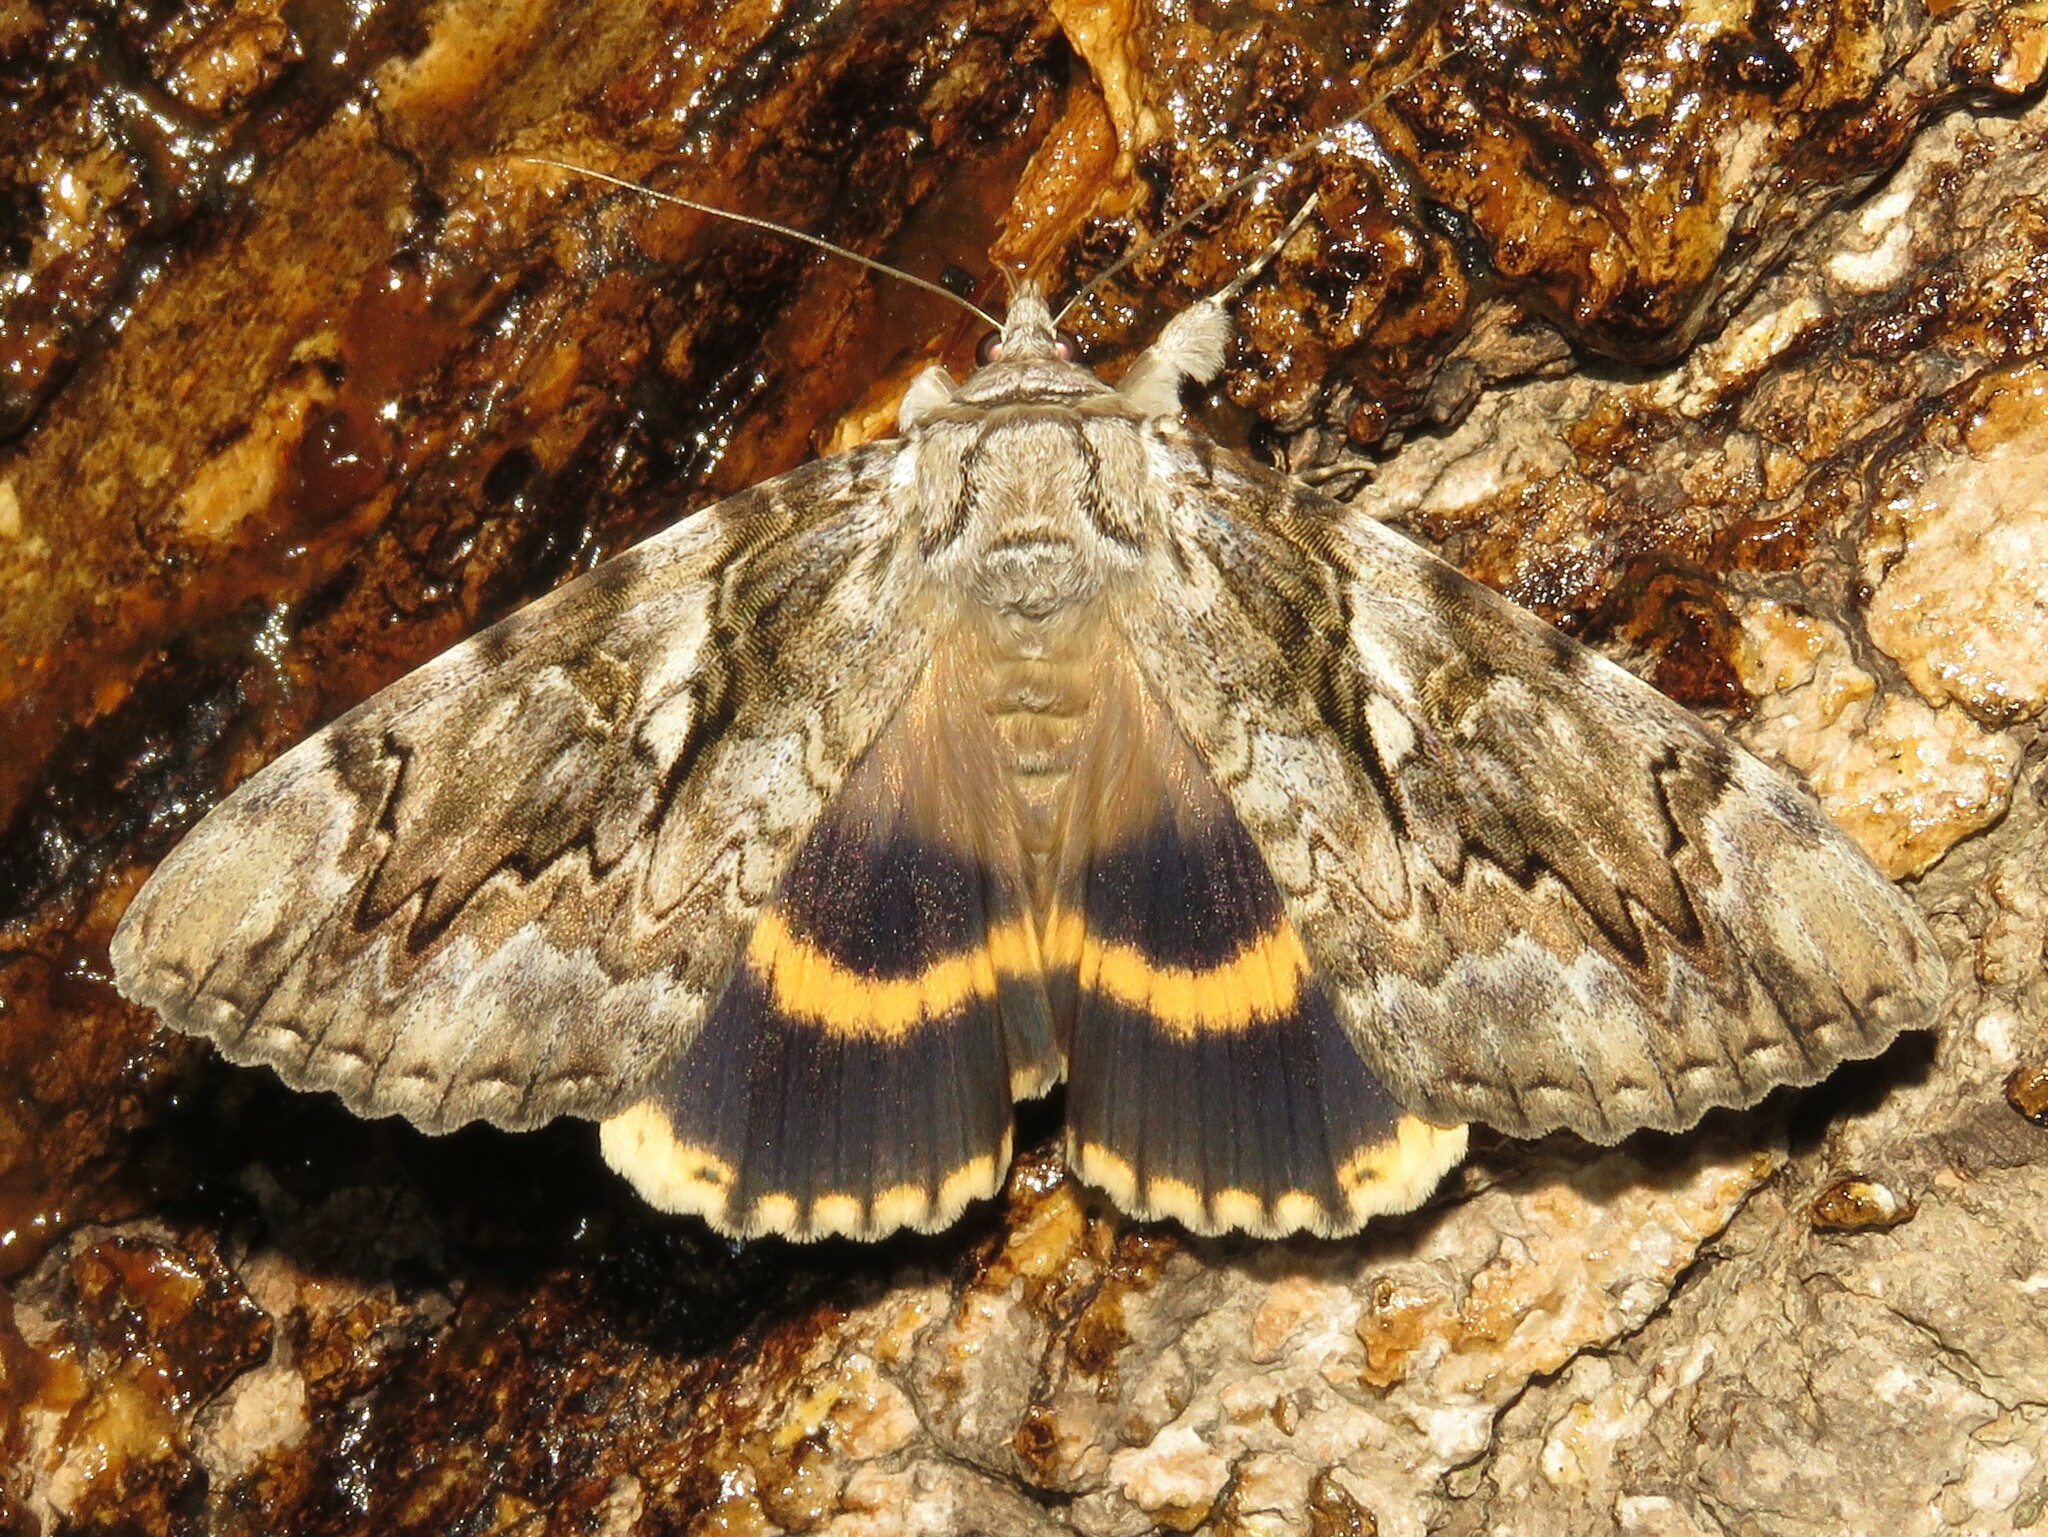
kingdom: Animalia
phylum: Arthropoda
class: Insecta
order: Lepidoptera
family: Erebidae
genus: Catocala
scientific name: Catocala cerogama
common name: Yellow banded underwing
